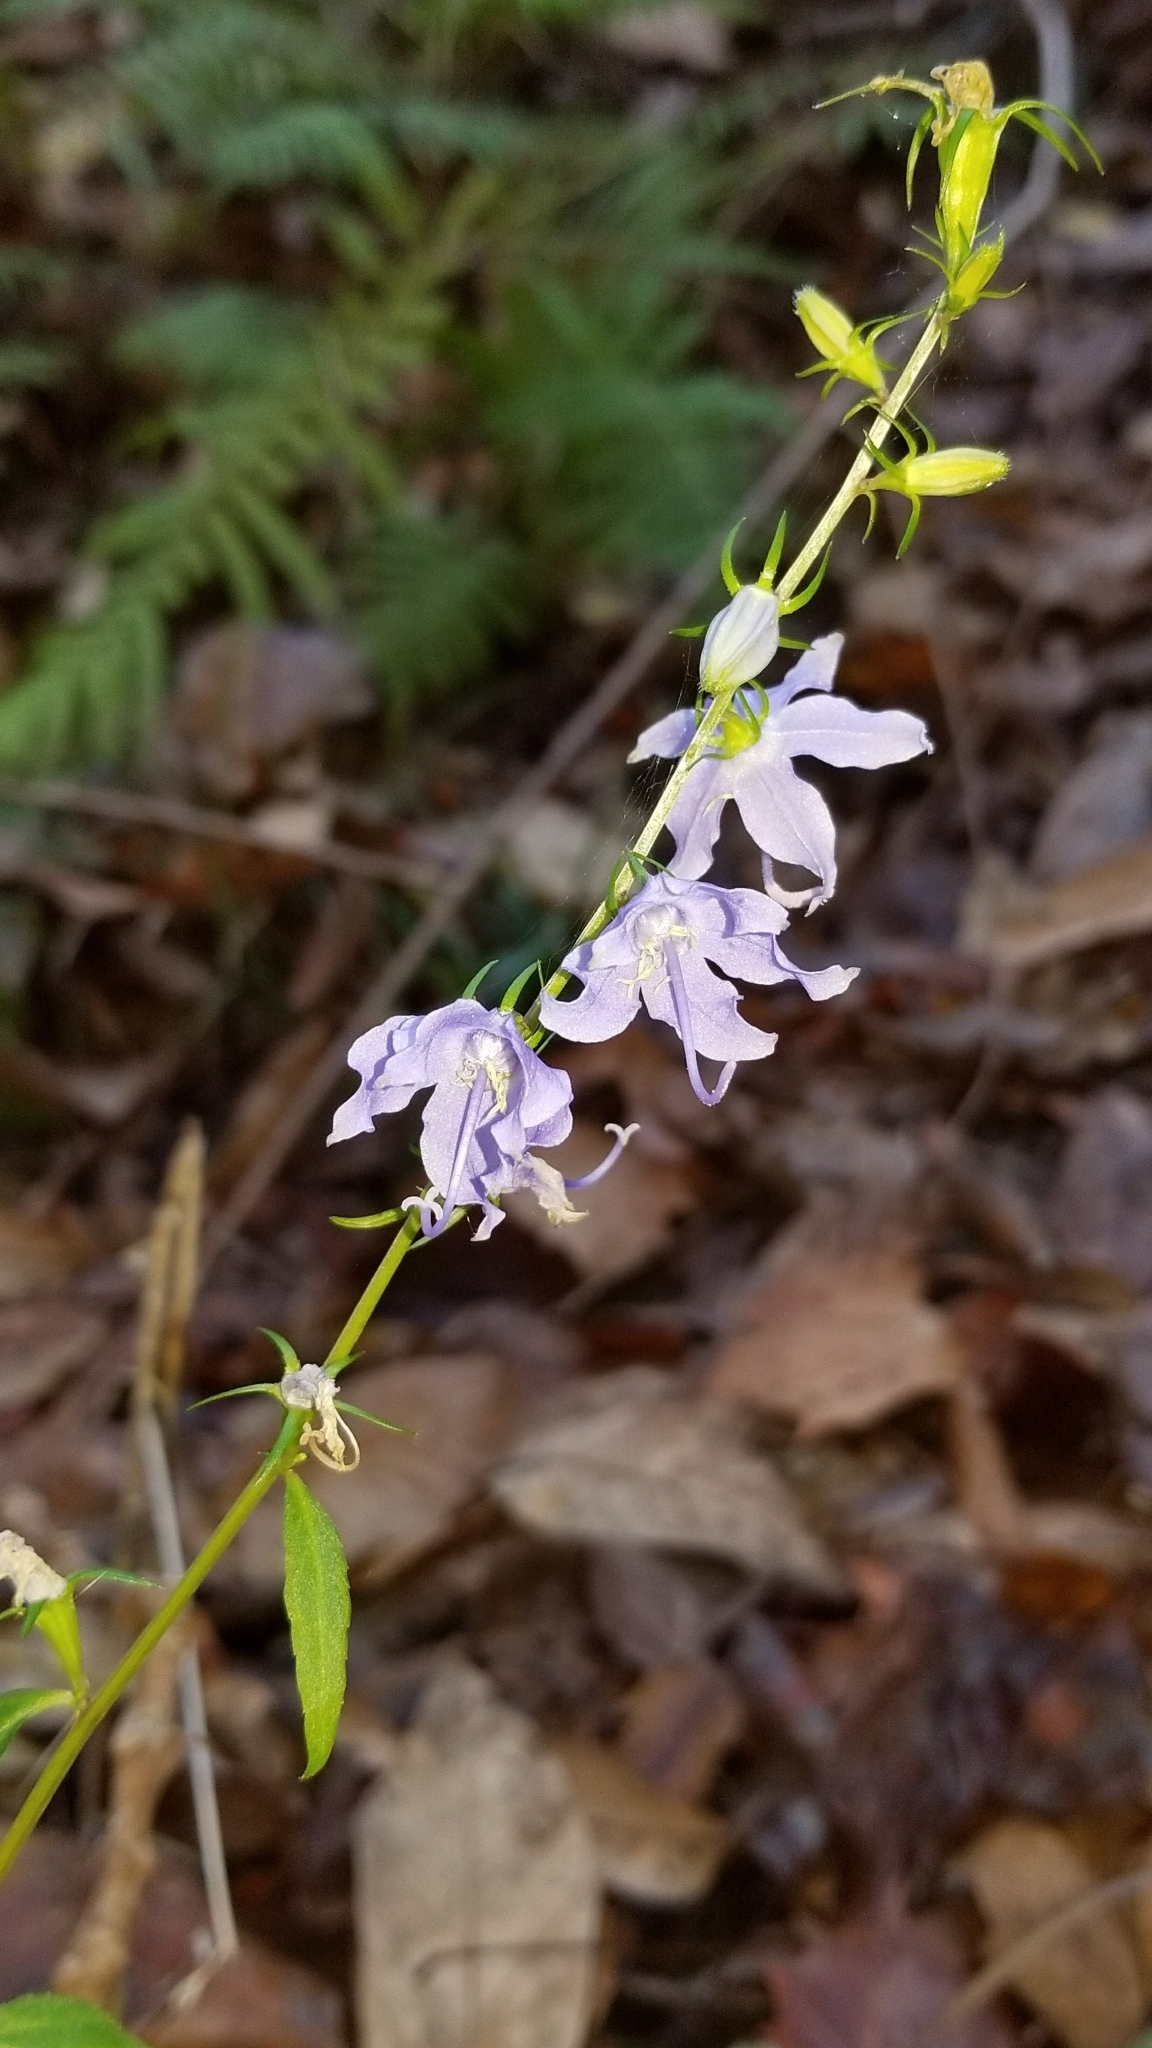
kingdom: Plantae
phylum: Tracheophyta
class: Magnoliopsida
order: Asterales
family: Campanulaceae
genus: Campanulastrum
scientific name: Campanulastrum americanum
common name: American bellflower
